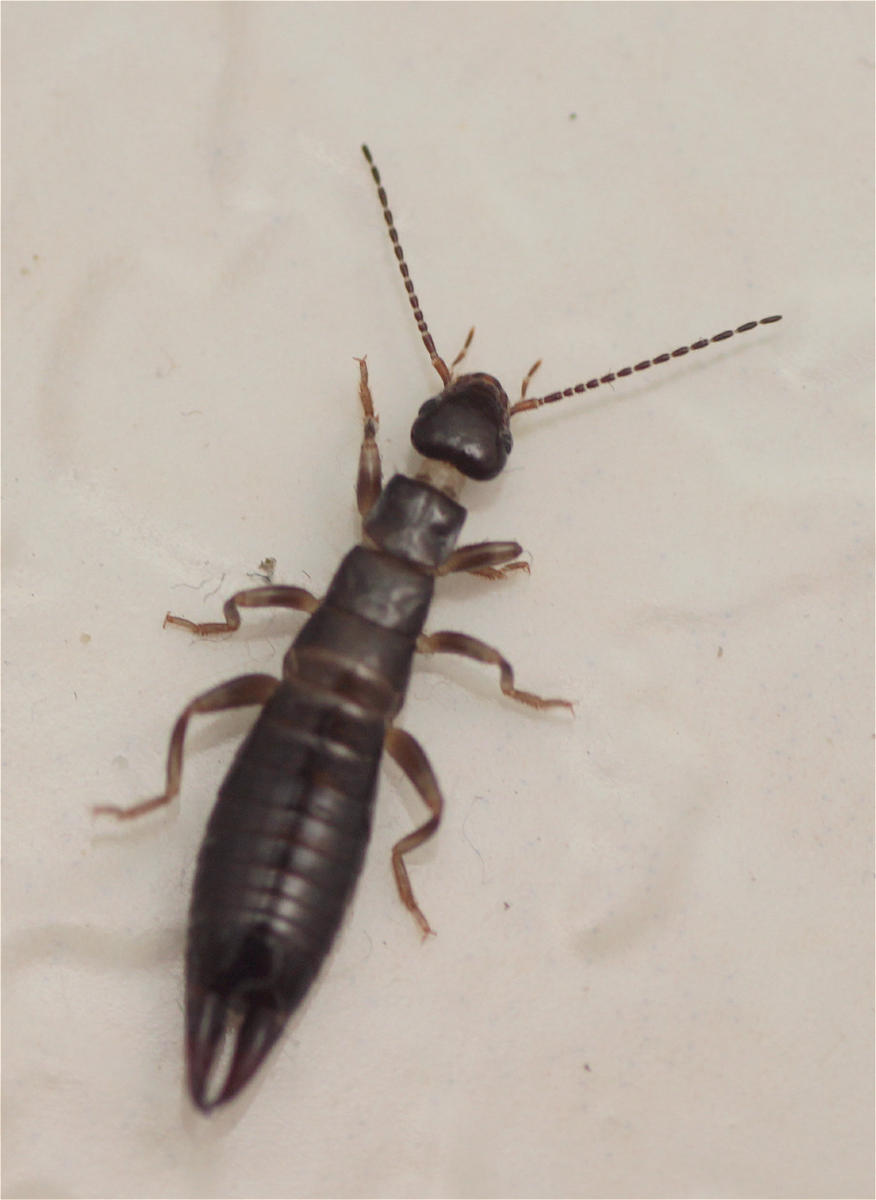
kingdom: Animalia
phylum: Arthropoda
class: Insecta
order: Dermaptera
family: Anisolabididae
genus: Euborellia
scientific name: Euborellia annulipes
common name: Ringlegged earwig
